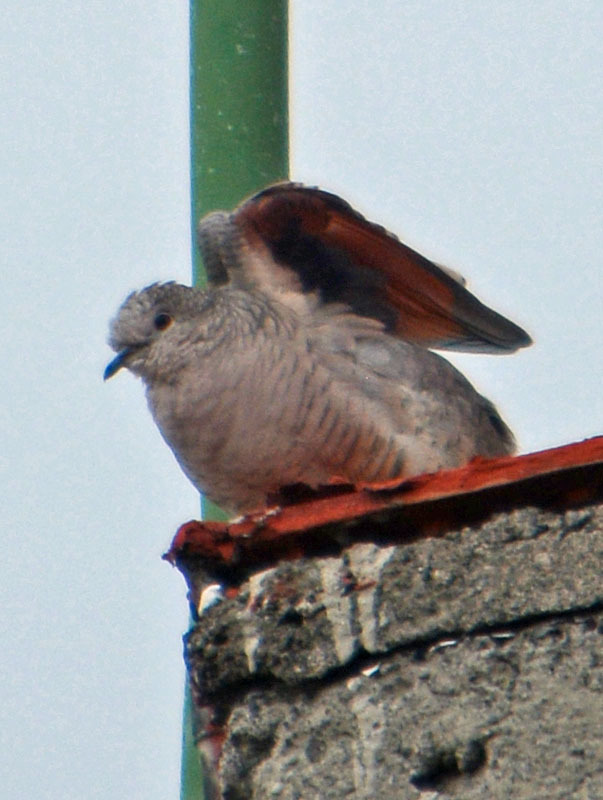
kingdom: Animalia
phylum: Chordata
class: Aves
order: Columbiformes
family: Columbidae
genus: Columbina
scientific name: Columbina inca
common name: Inca dove
